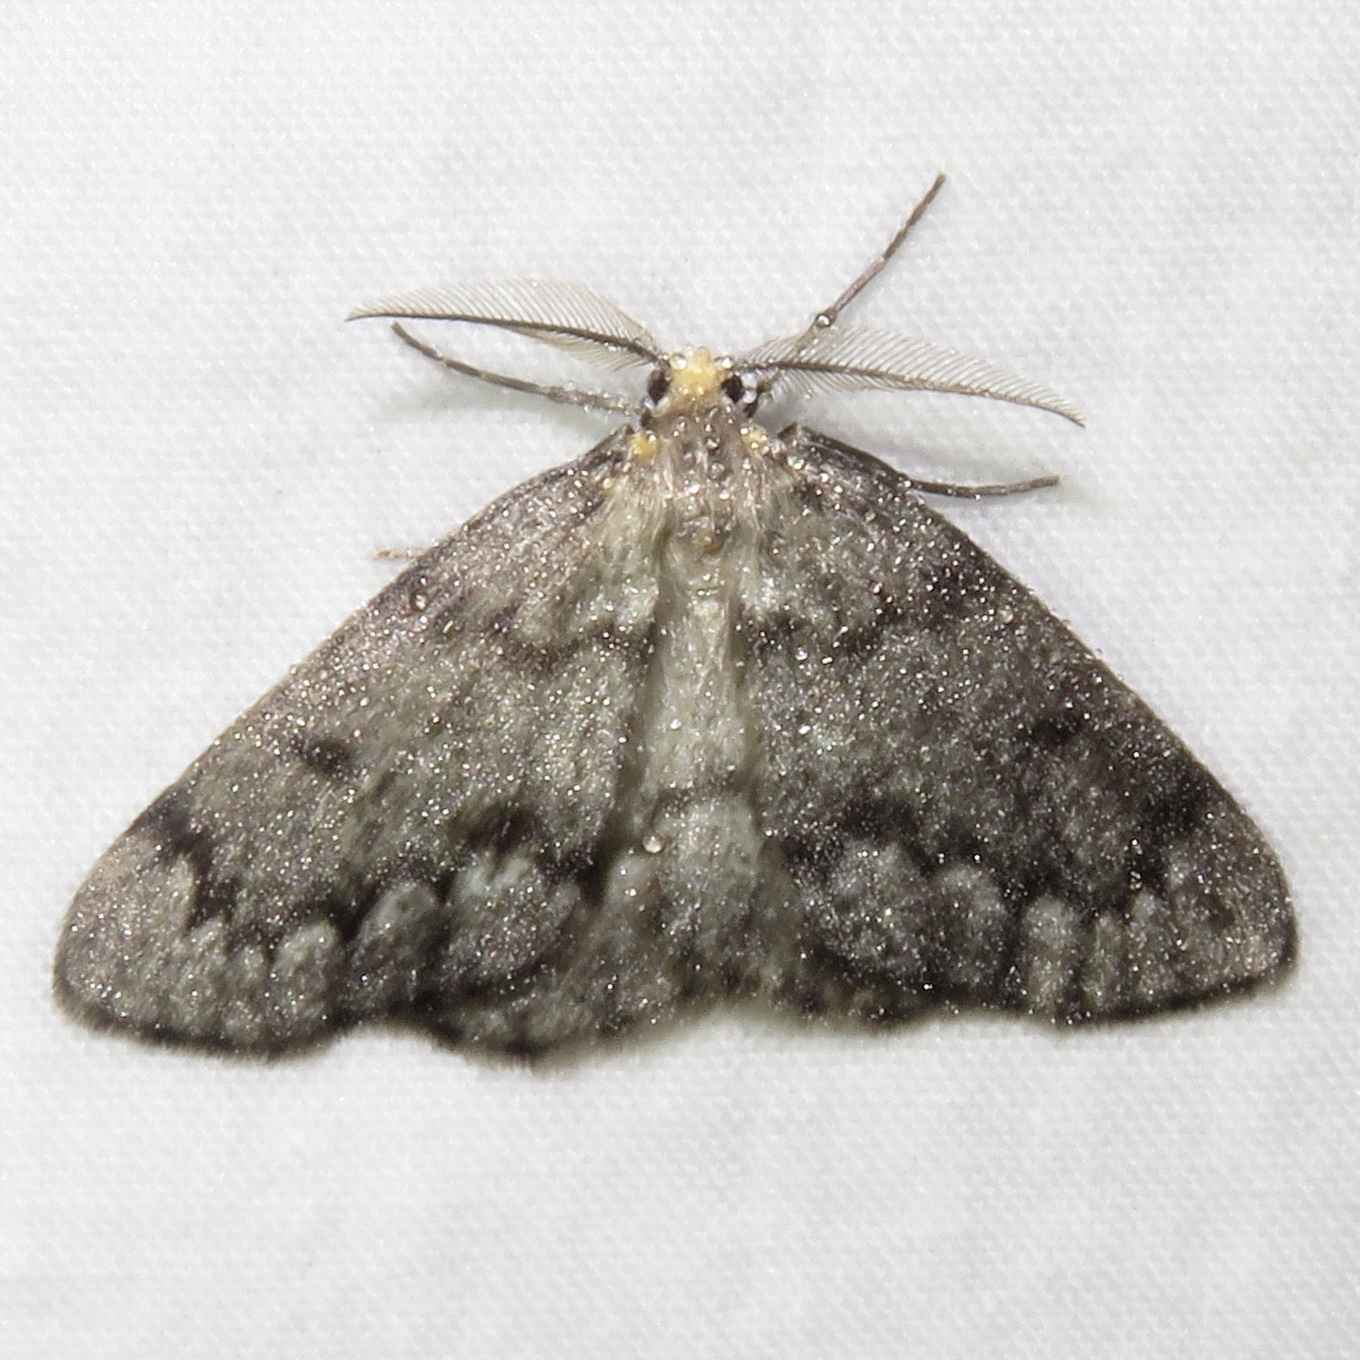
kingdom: Animalia
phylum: Arthropoda
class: Insecta
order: Lepidoptera
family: Geometridae
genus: Nepytia
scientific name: Nepytia canosaria
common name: False hemlock looper
